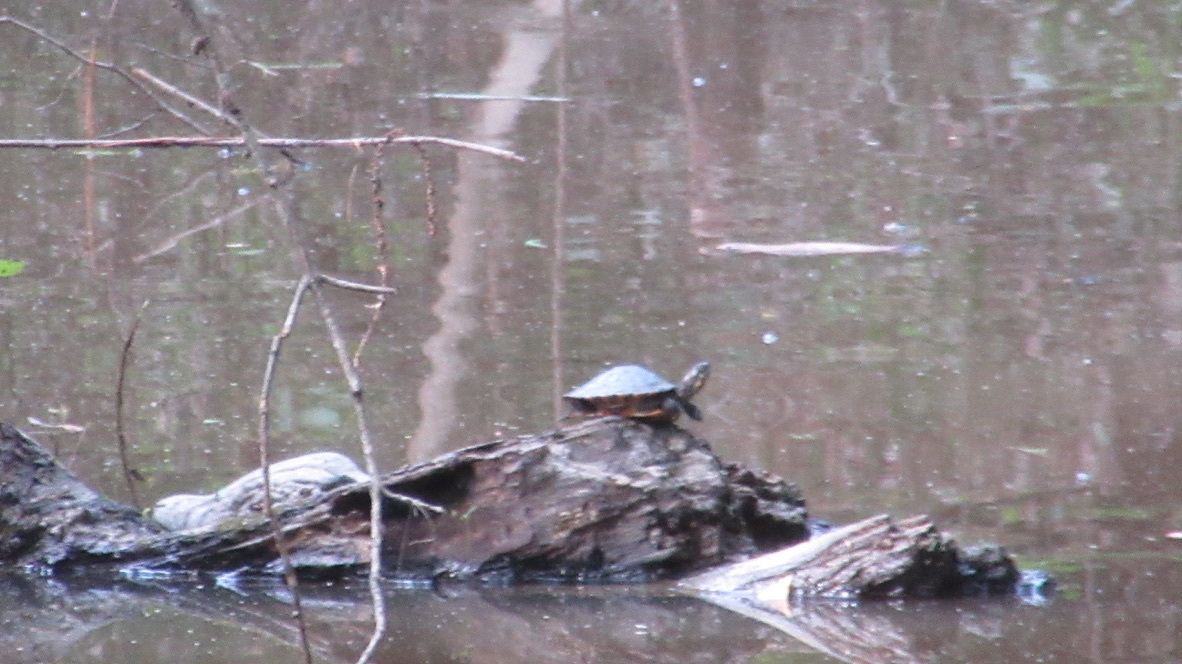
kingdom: Animalia
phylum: Chordata
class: Testudines
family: Emydidae
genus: Pseudemys
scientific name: Pseudemys concinna
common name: Eastern river cooter
